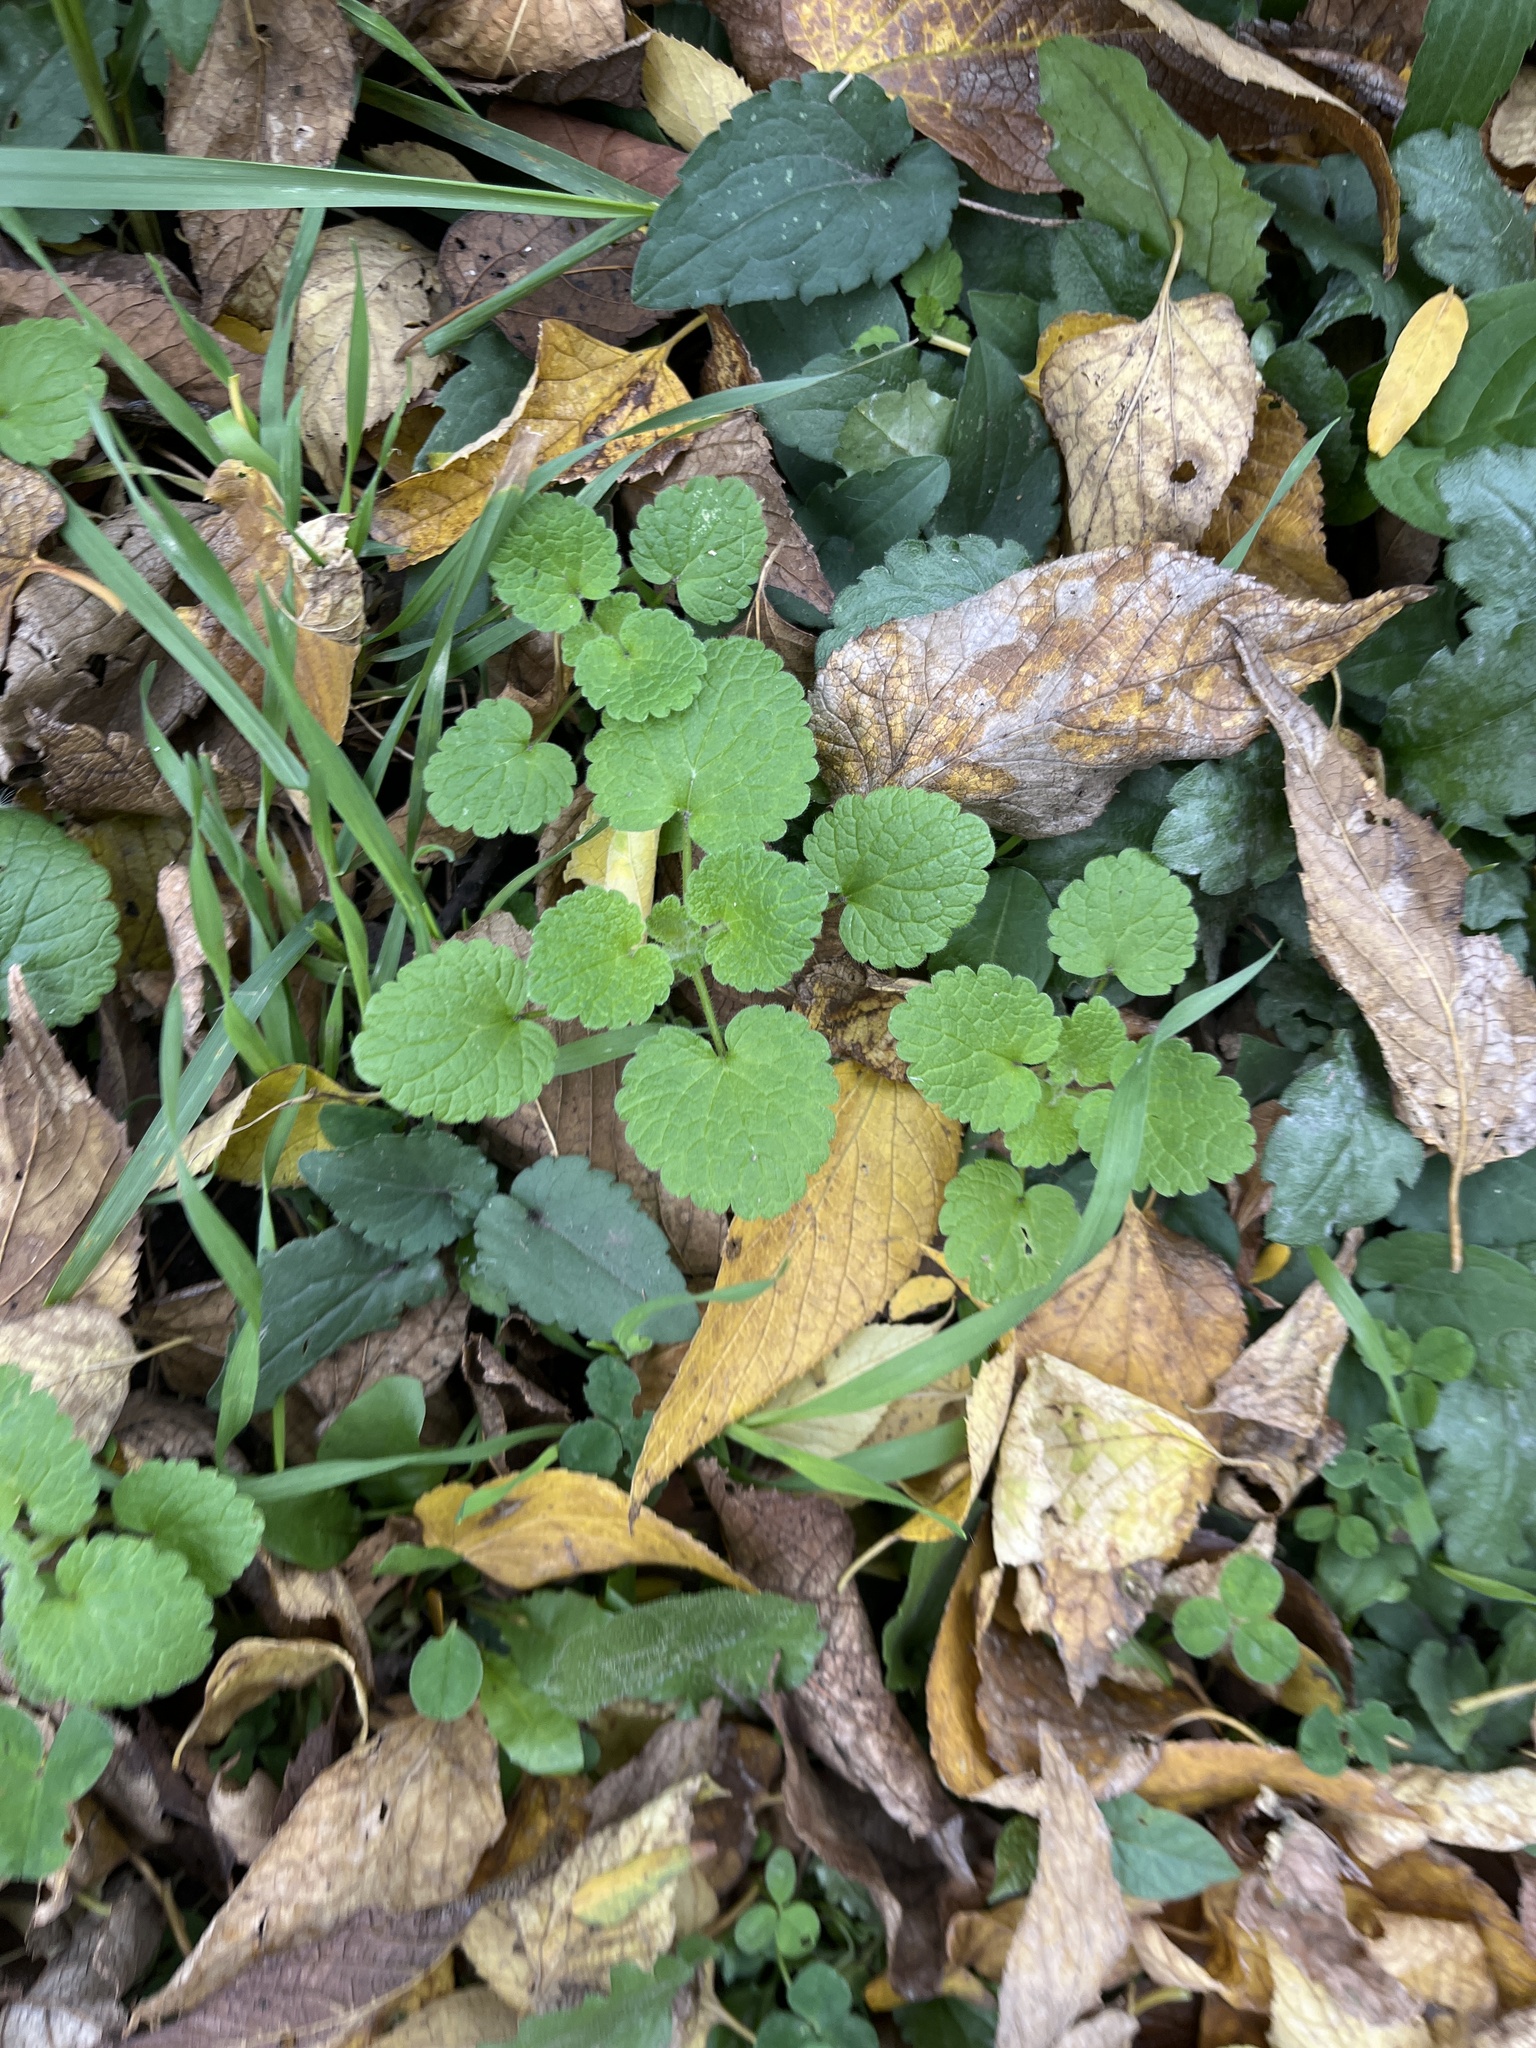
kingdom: Plantae
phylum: Tracheophyta
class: Magnoliopsida
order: Lamiales
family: Lamiaceae
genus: Lamium
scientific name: Lamium purpureum
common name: Red dead-nettle
